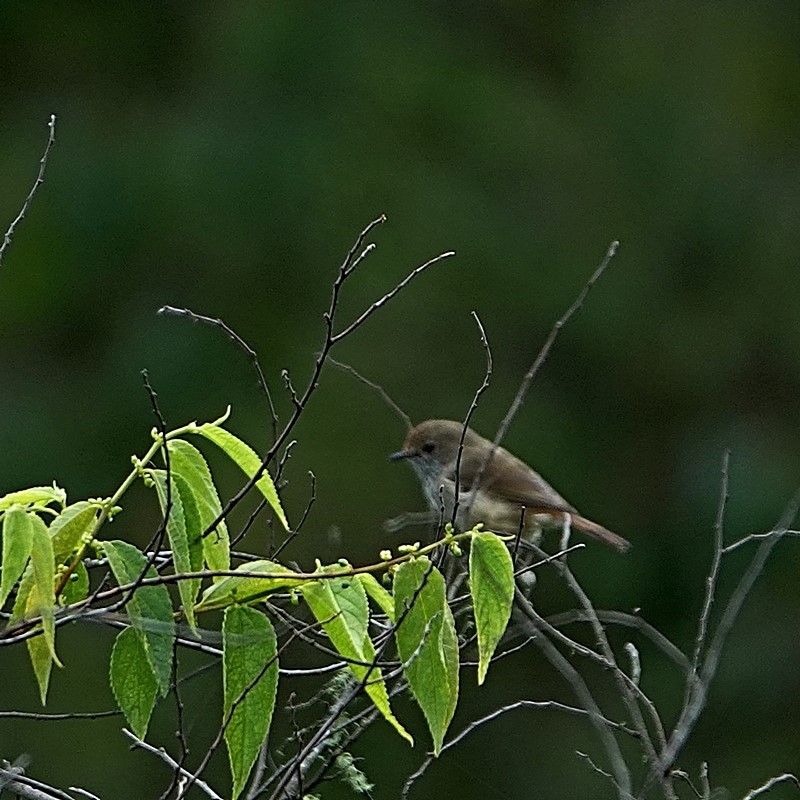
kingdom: Animalia
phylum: Chordata
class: Aves
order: Passeriformes
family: Acanthizidae
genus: Acanthiza
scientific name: Acanthiza pusilla
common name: Brown thornbill
